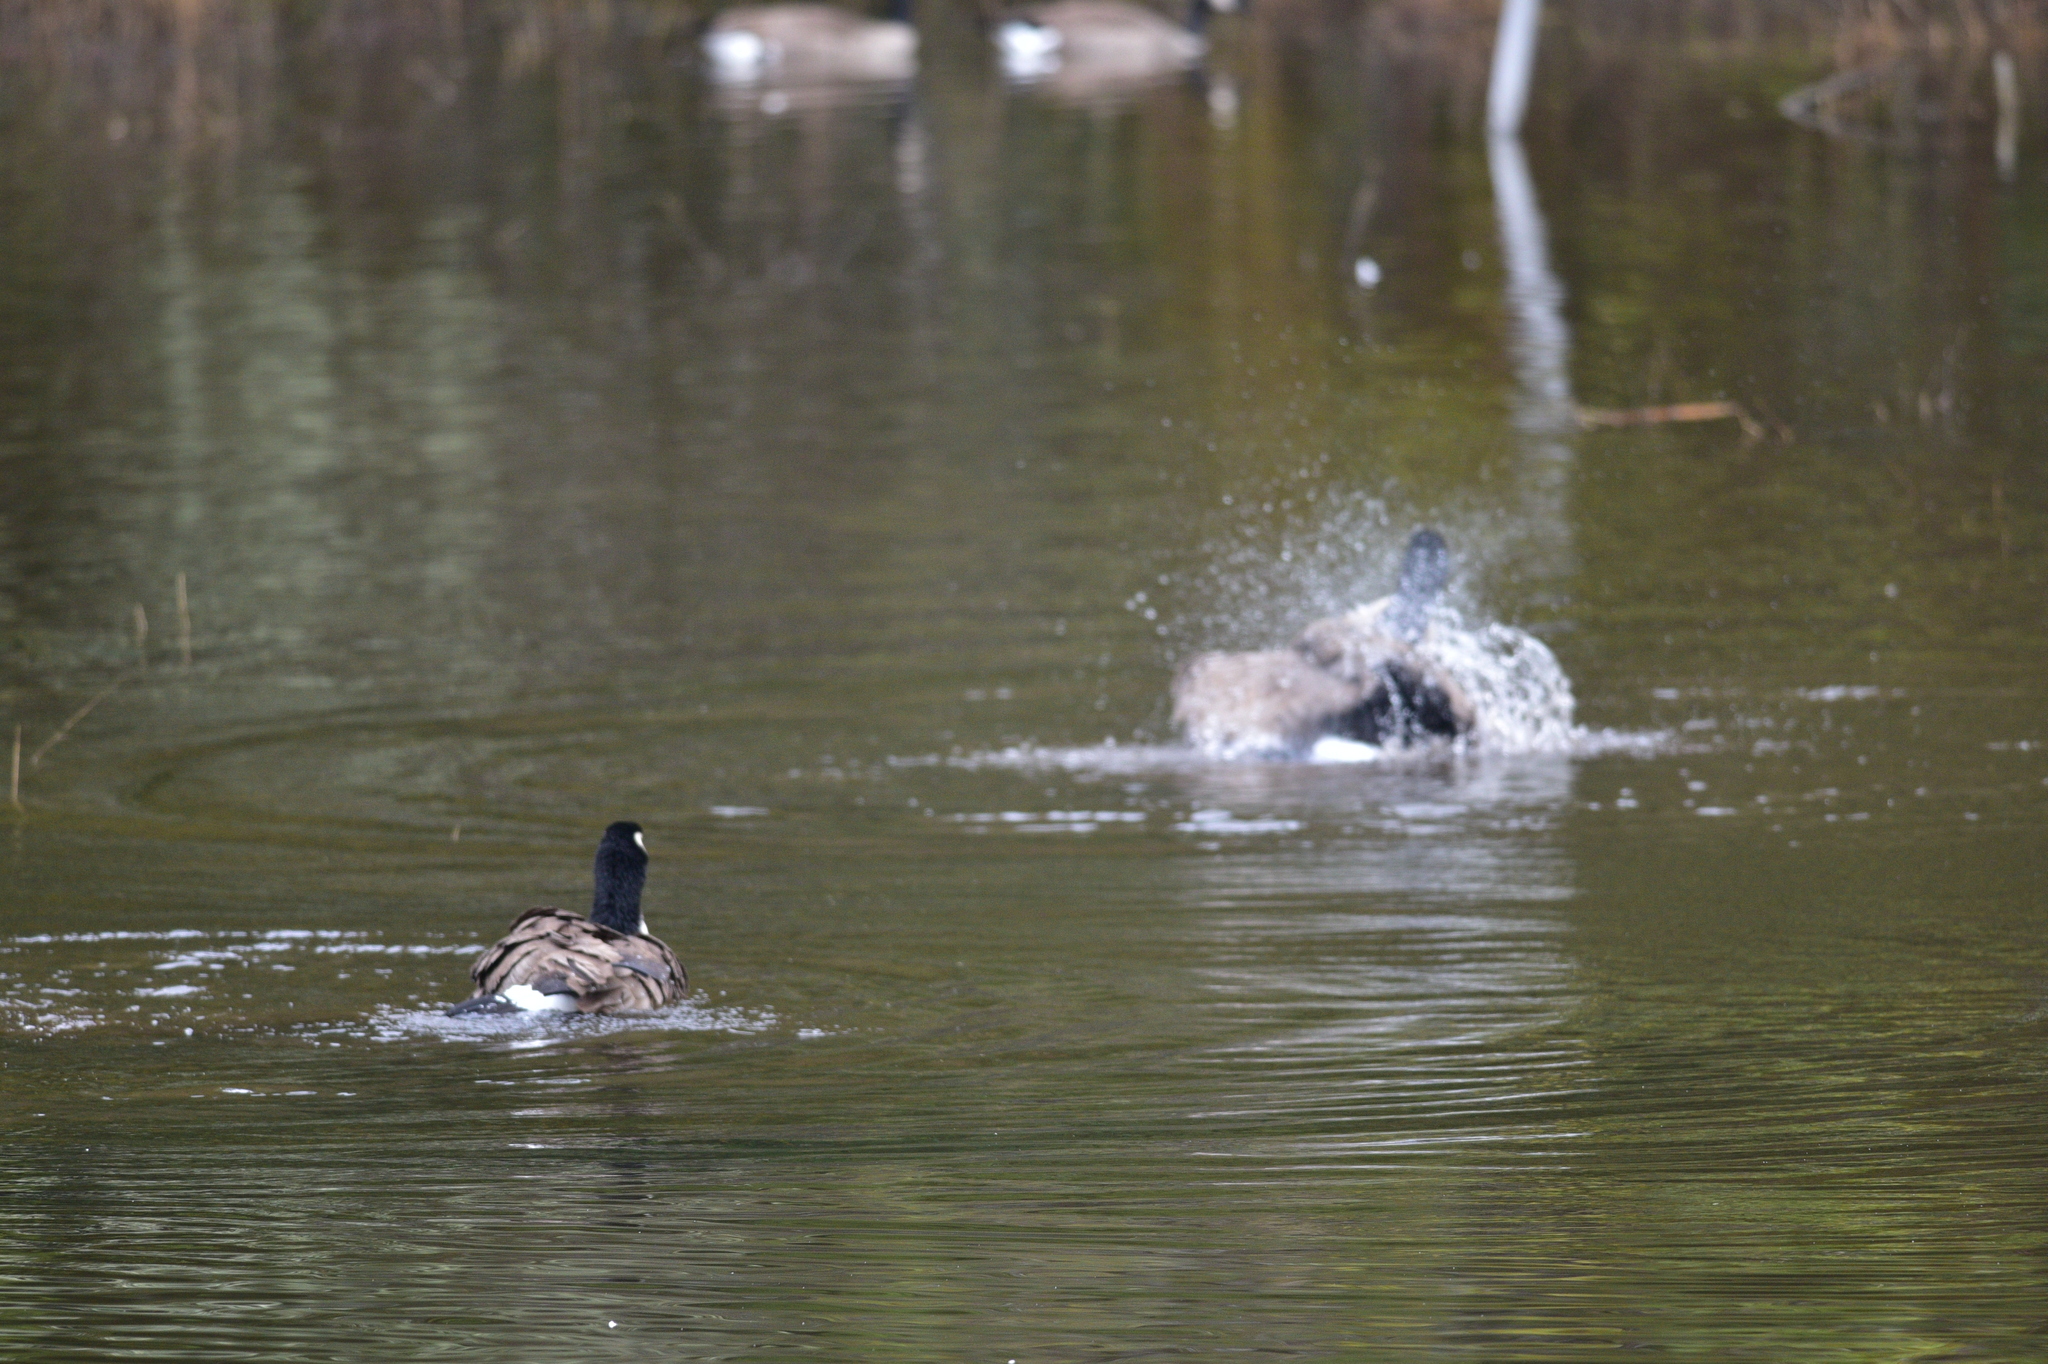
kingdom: Animalia
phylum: Chordata
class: Aves
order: Anseriformes
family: Anatidae
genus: Branta
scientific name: Branta canadensis
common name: Canada goose
